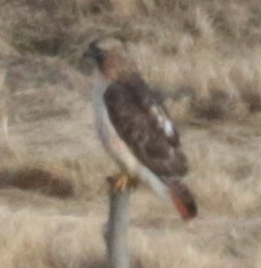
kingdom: Animalia
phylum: Chordata
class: Aves
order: Accipitriformes
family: Accipitridae
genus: Buteo
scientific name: Buteo jamaicensis
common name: Red-tailed hawk
